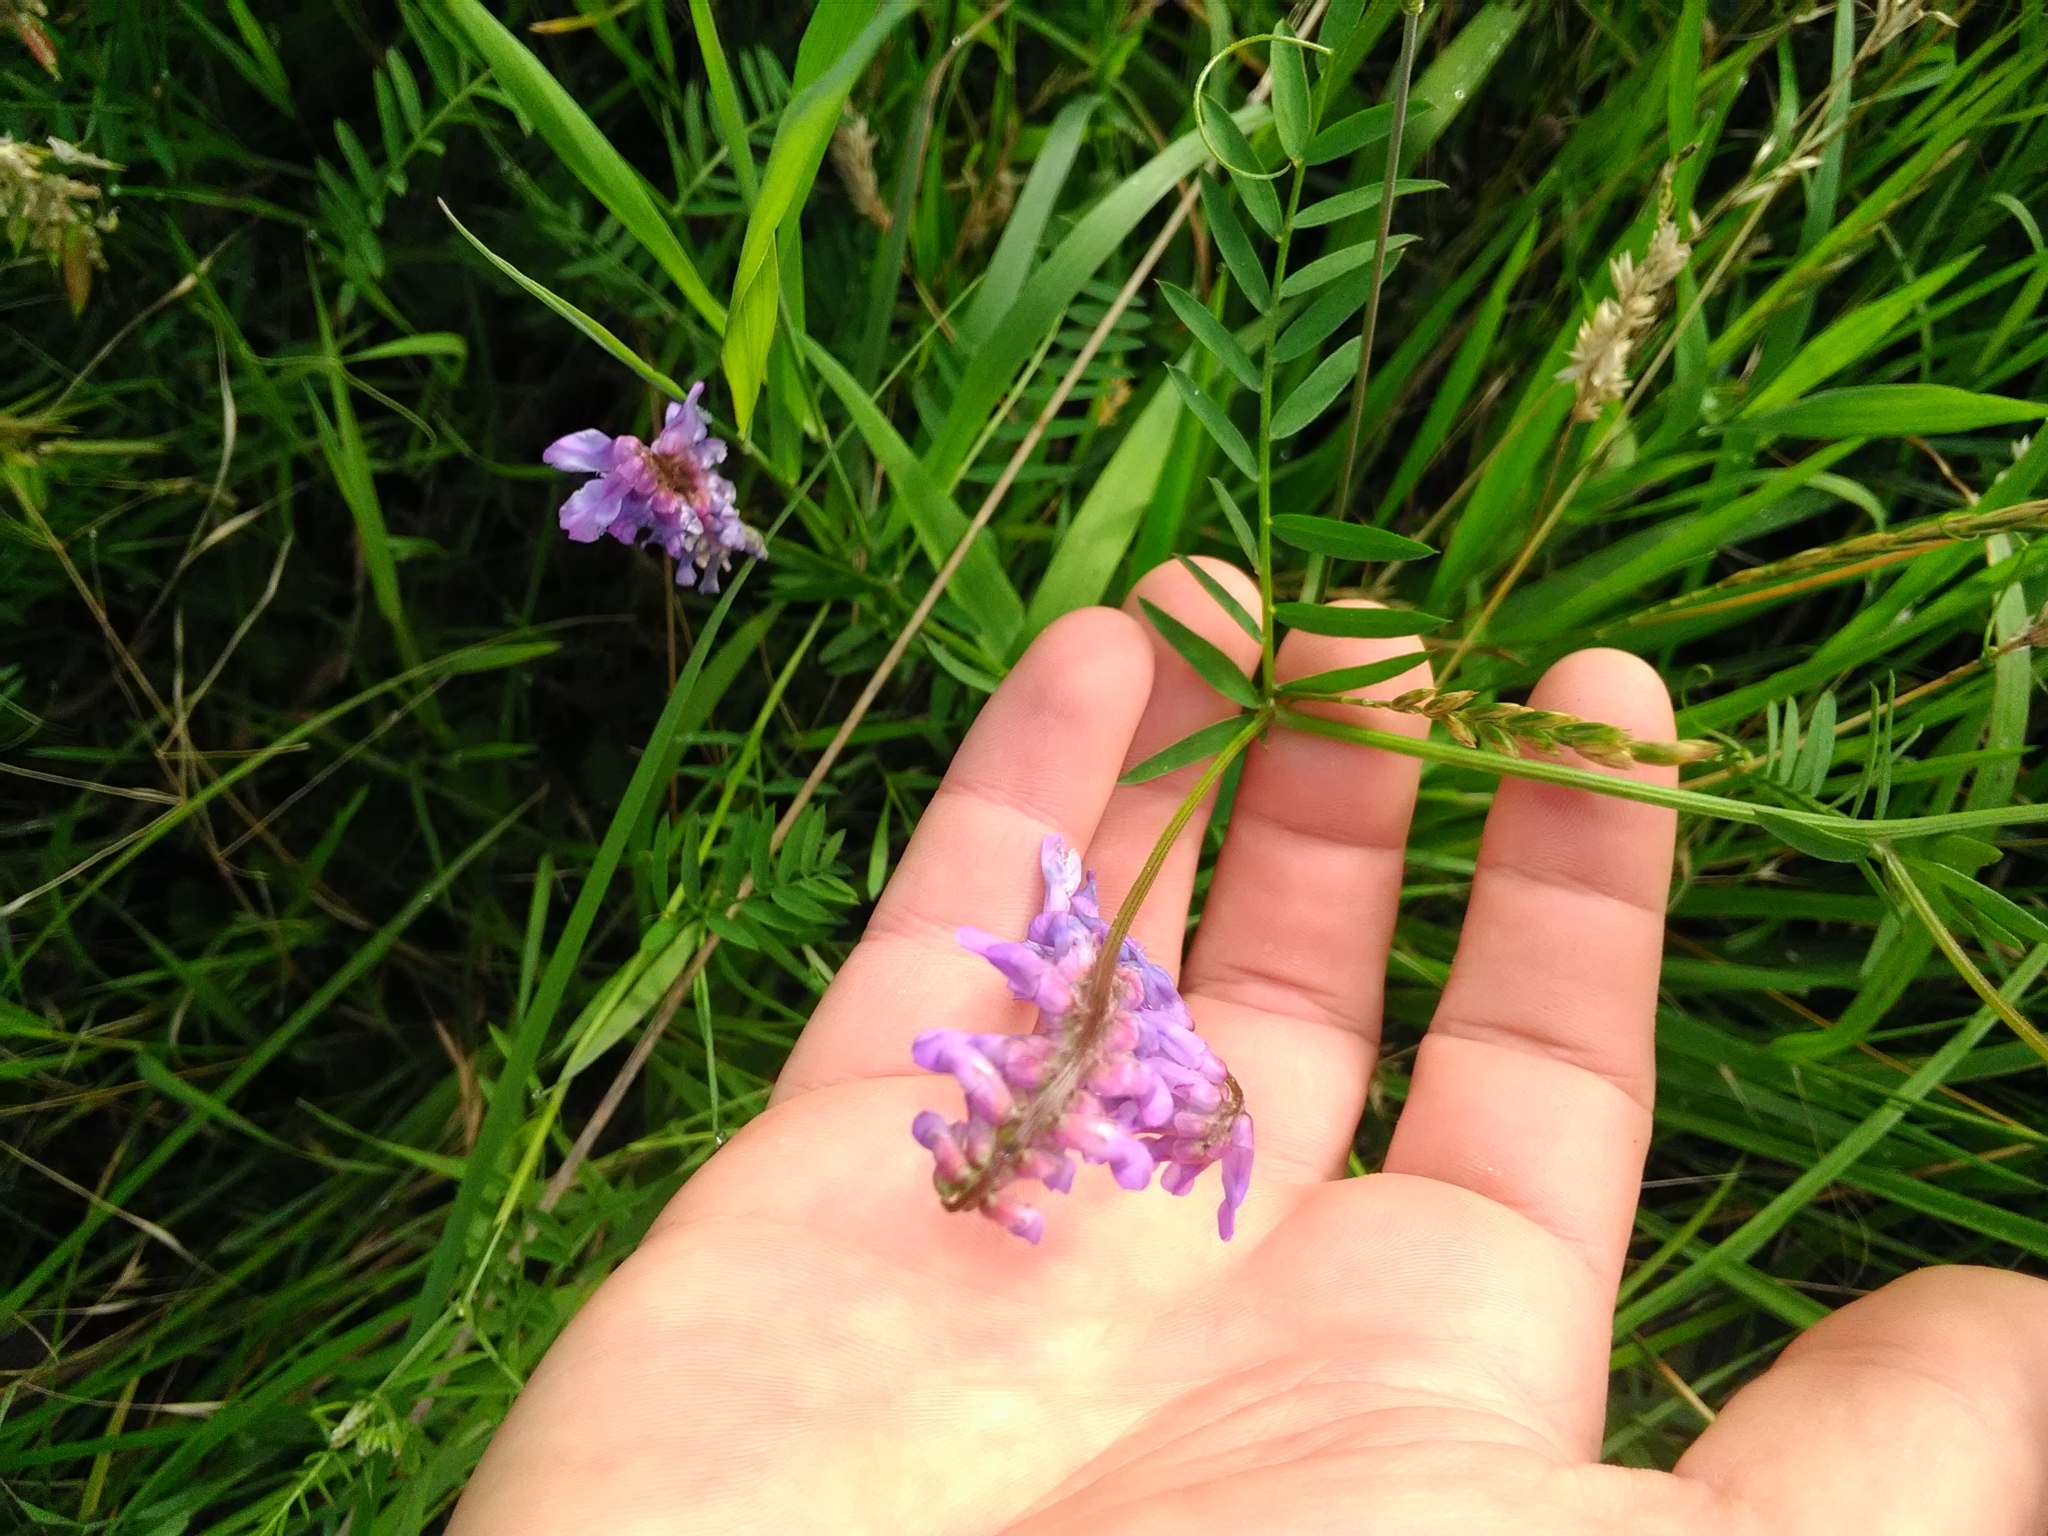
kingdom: Plantae
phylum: Tracheophyta
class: Magnoliopsida
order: Fabales
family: Fabaceae
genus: Vicia
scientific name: Vicia cracca
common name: Bird vetch
